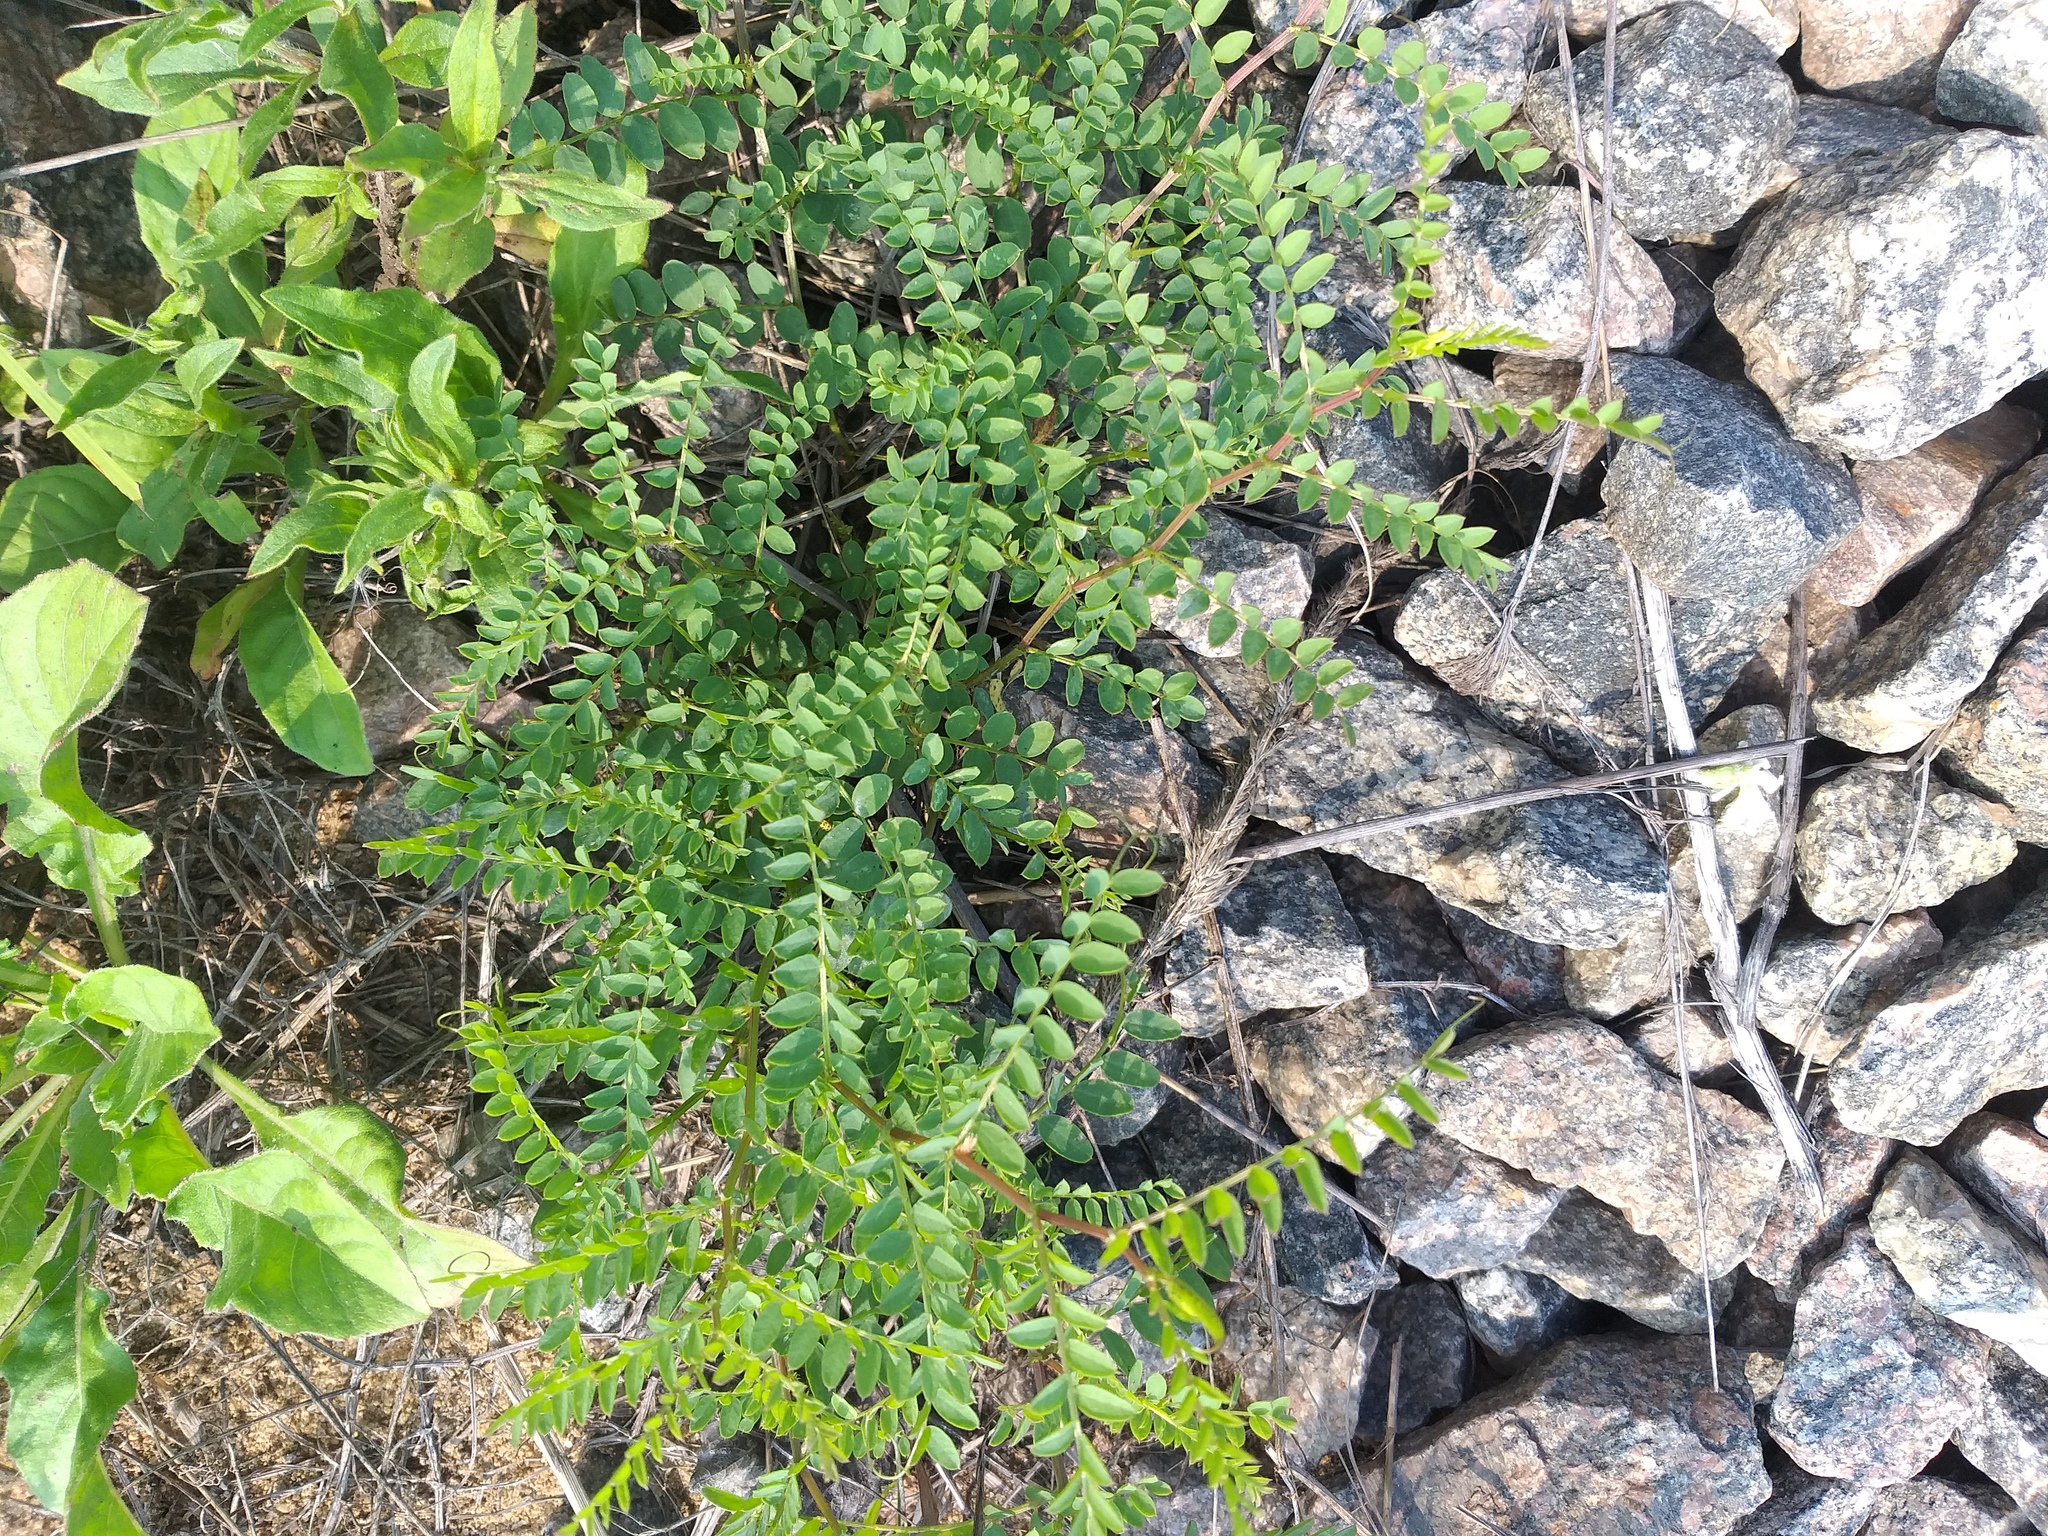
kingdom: Plantae
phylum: Tracheophyta
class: Magnoliopsida
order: Fabales
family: Fabaceae
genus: Vicia
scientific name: Vicia sylvatica
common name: Wood vetch
